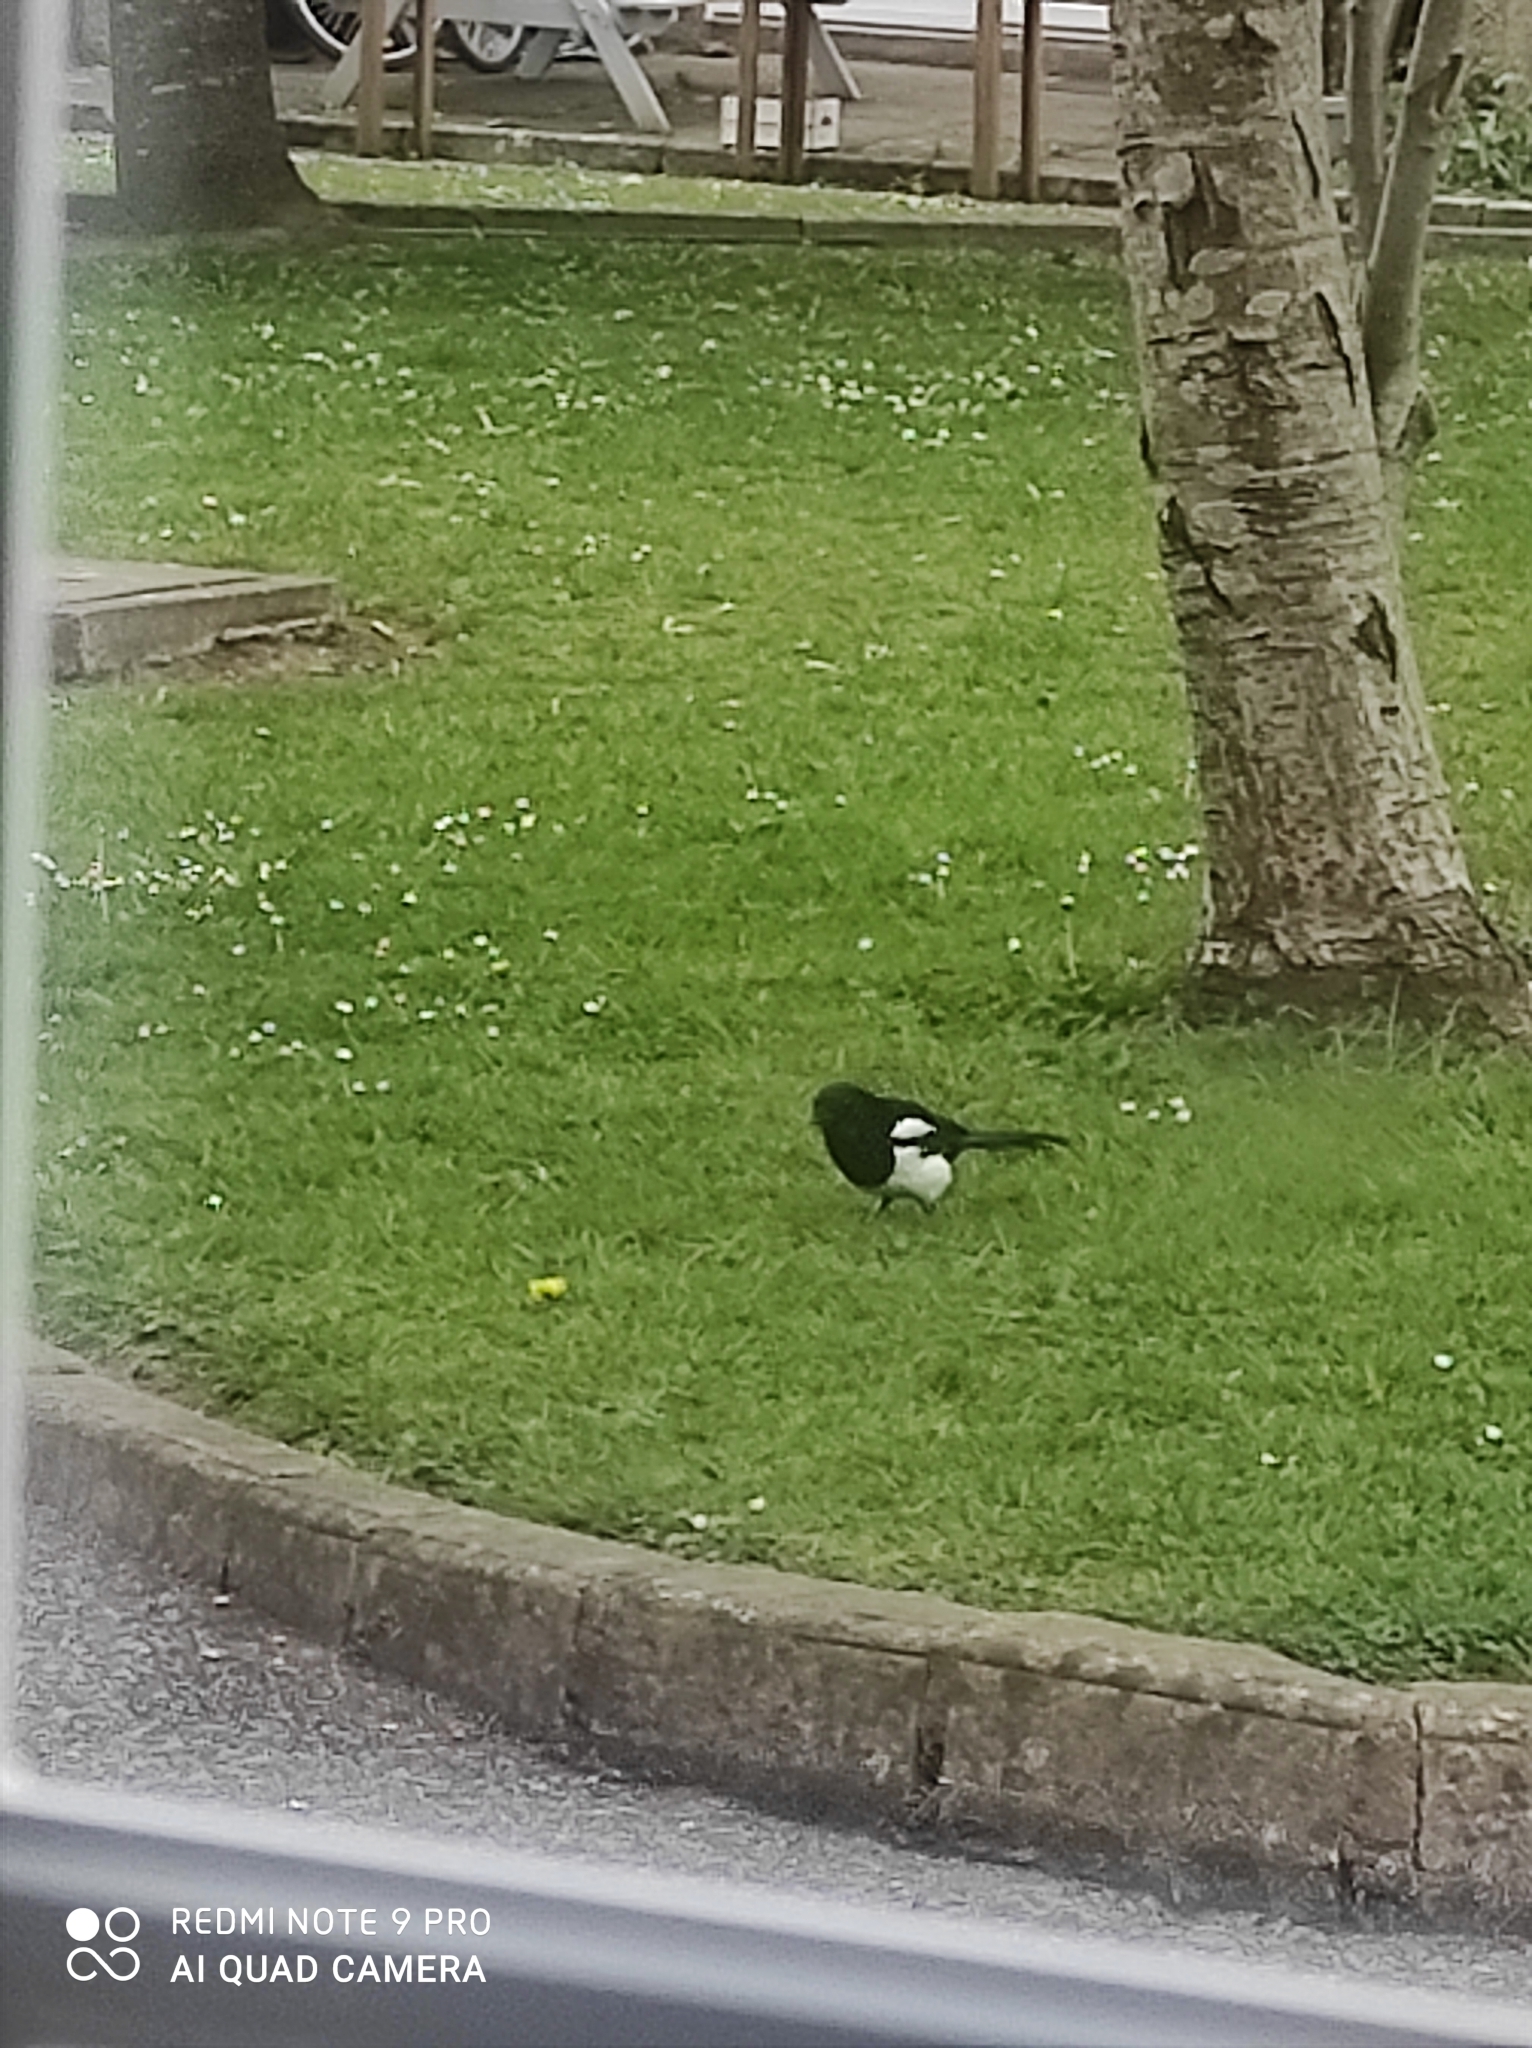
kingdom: Animalia
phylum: Chordata
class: Aves
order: Passeriformes
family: Corvidae
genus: Pica
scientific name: Pica pica
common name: Eurasian magpie
